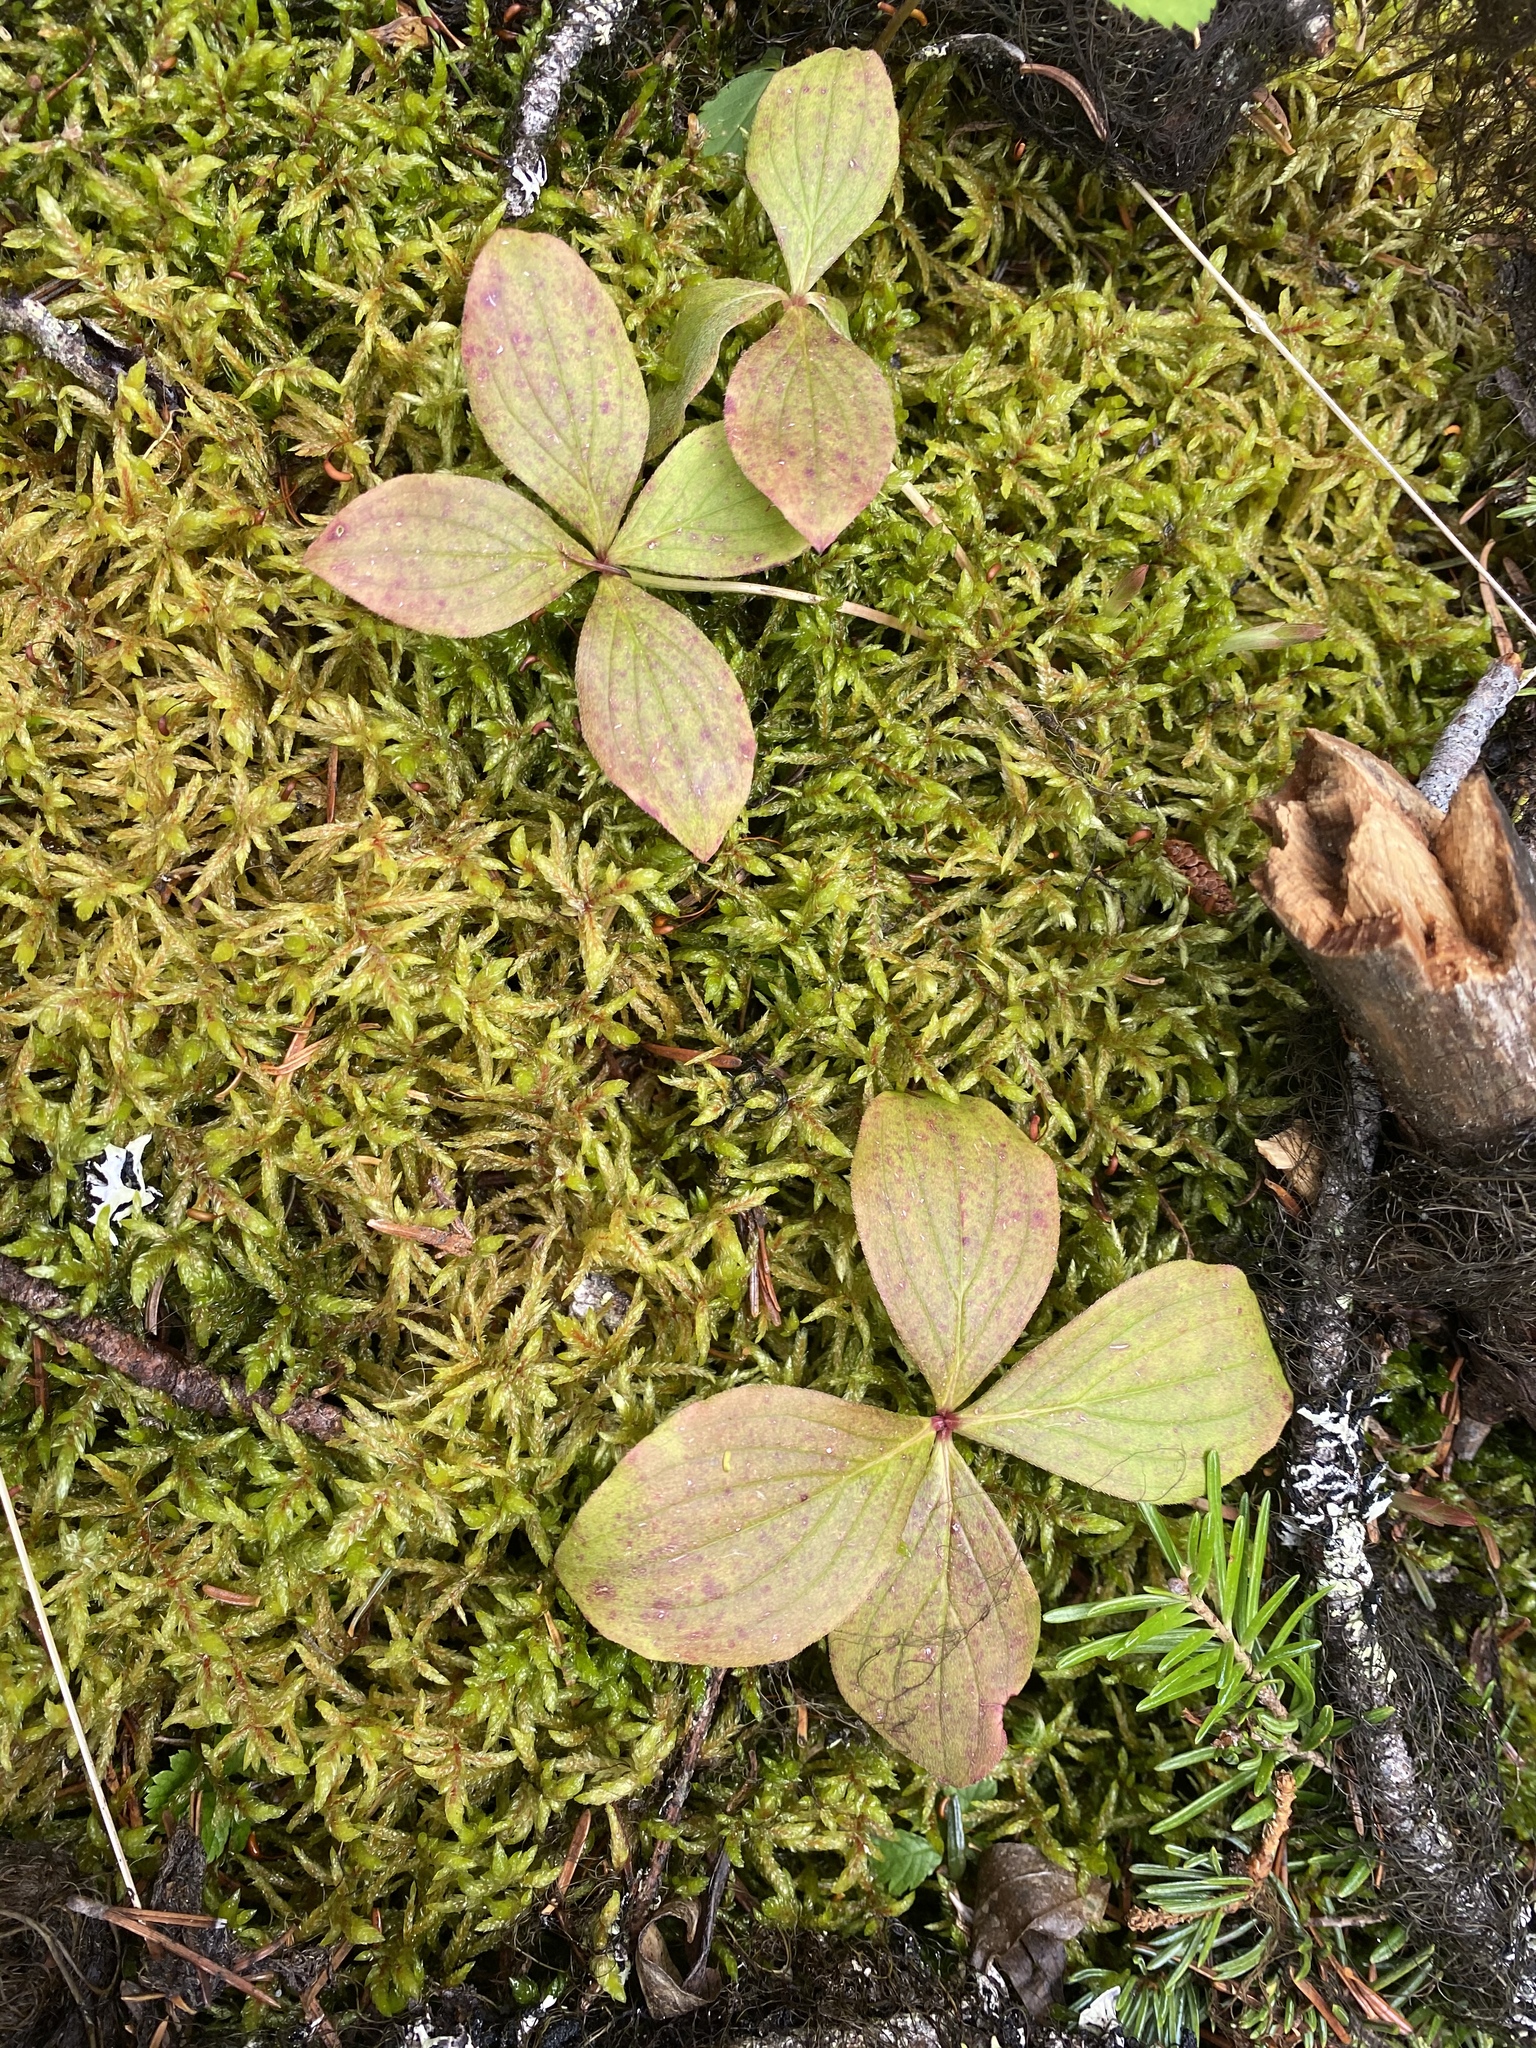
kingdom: Plantae
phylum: Tracheophyta
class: Magnoliopsida
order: Cornales
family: Cornaceae
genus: Cornus
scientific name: Cornus canadensis
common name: Creeping dogwood
